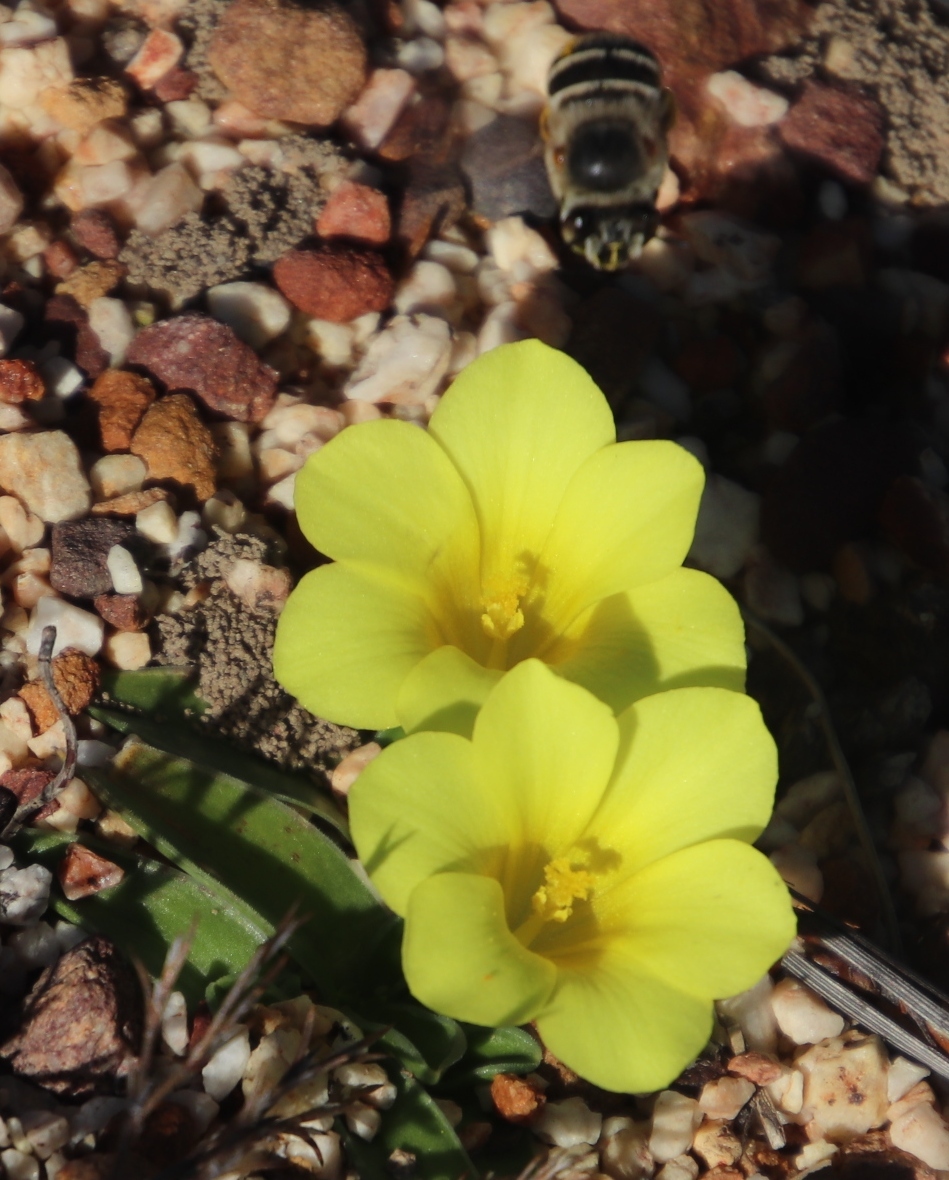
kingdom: Plantae
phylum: Tracheophyta
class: Liliopsida
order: Asparagales
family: Iridaceae
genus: Moraea
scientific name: Moraea galaxia
